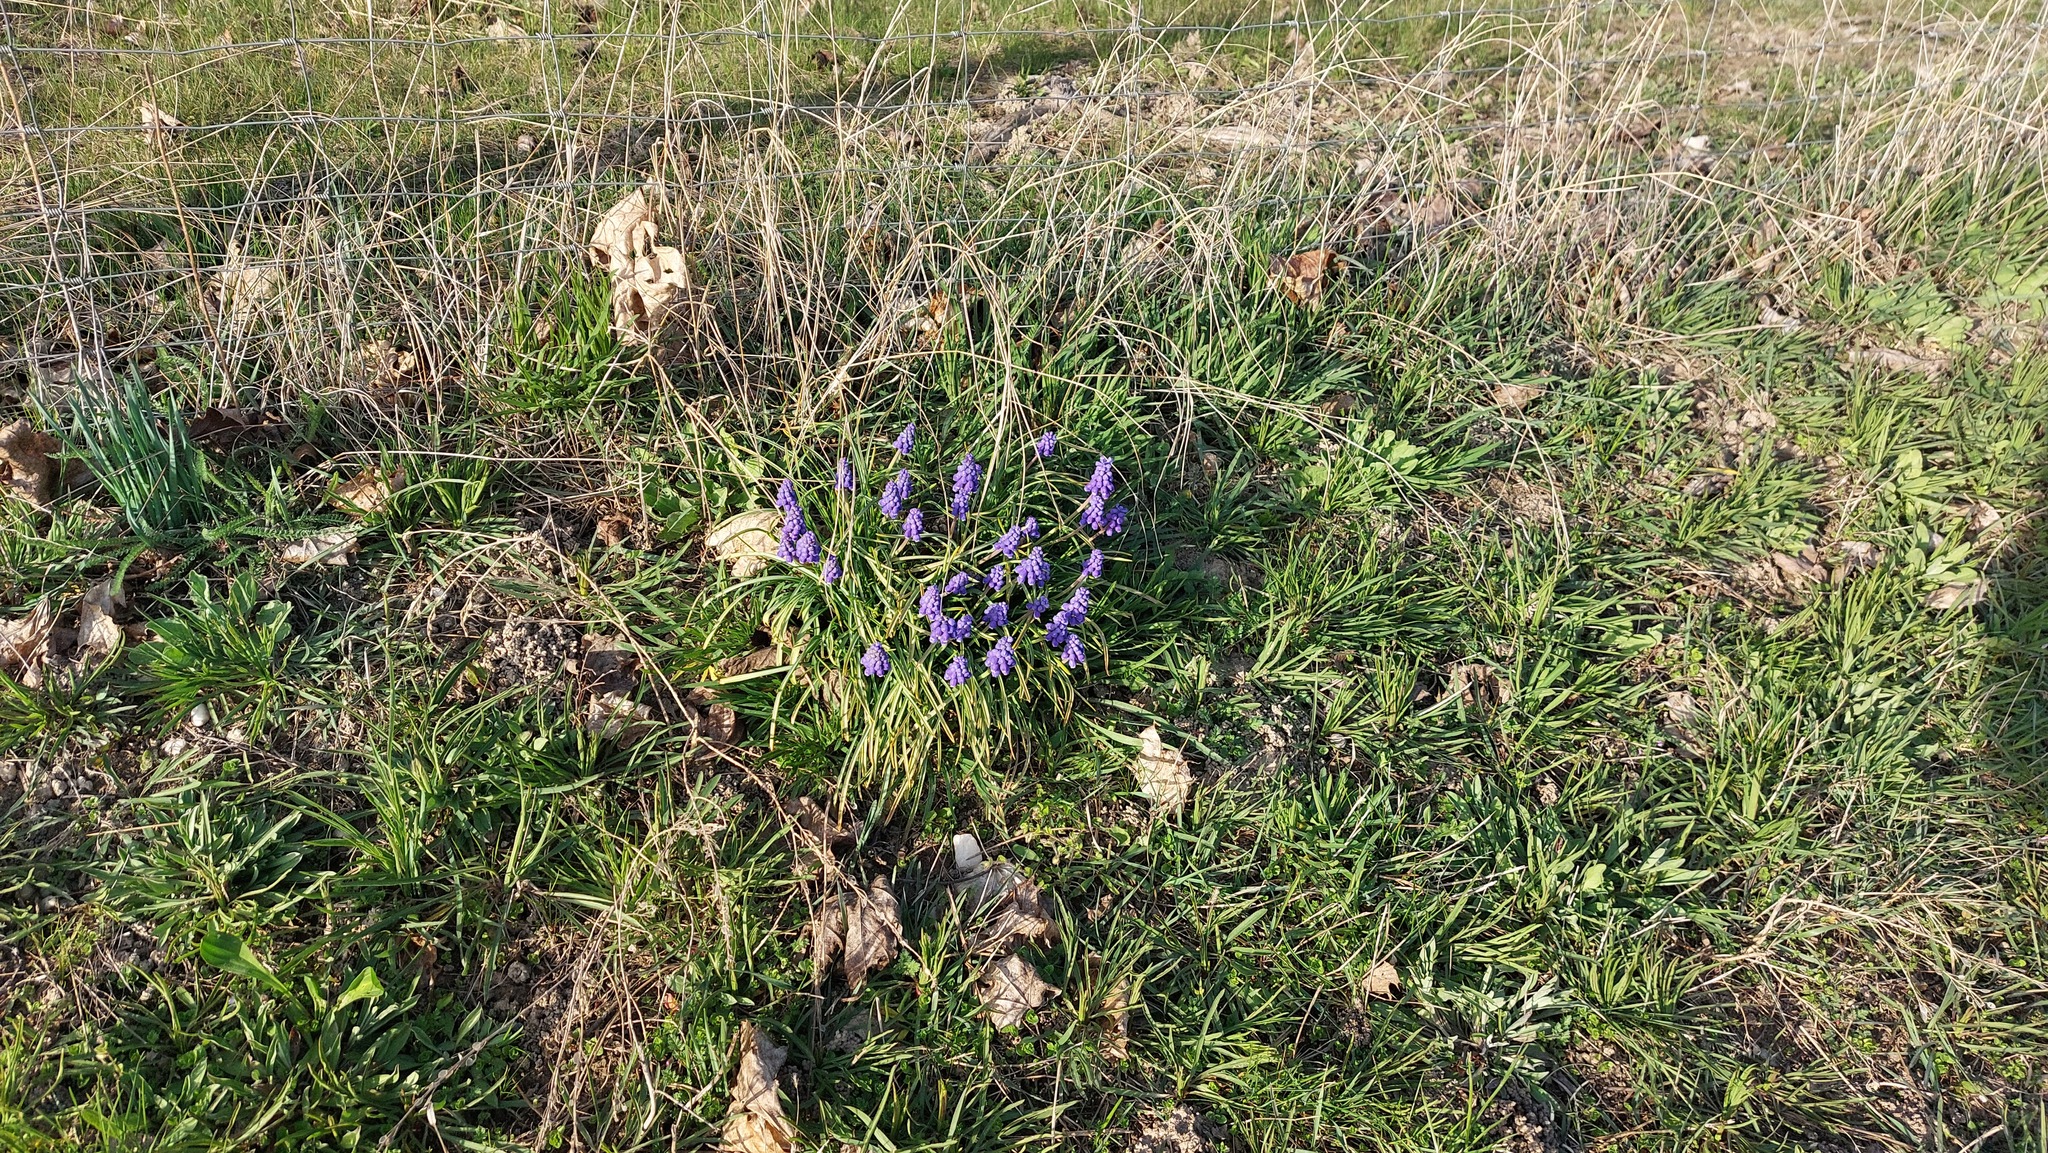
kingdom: Plantae
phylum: Tracheophyta
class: Liliopsida
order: Asparagales
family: Asparagaceae
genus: Muscari
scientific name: Muscari armeniacum
